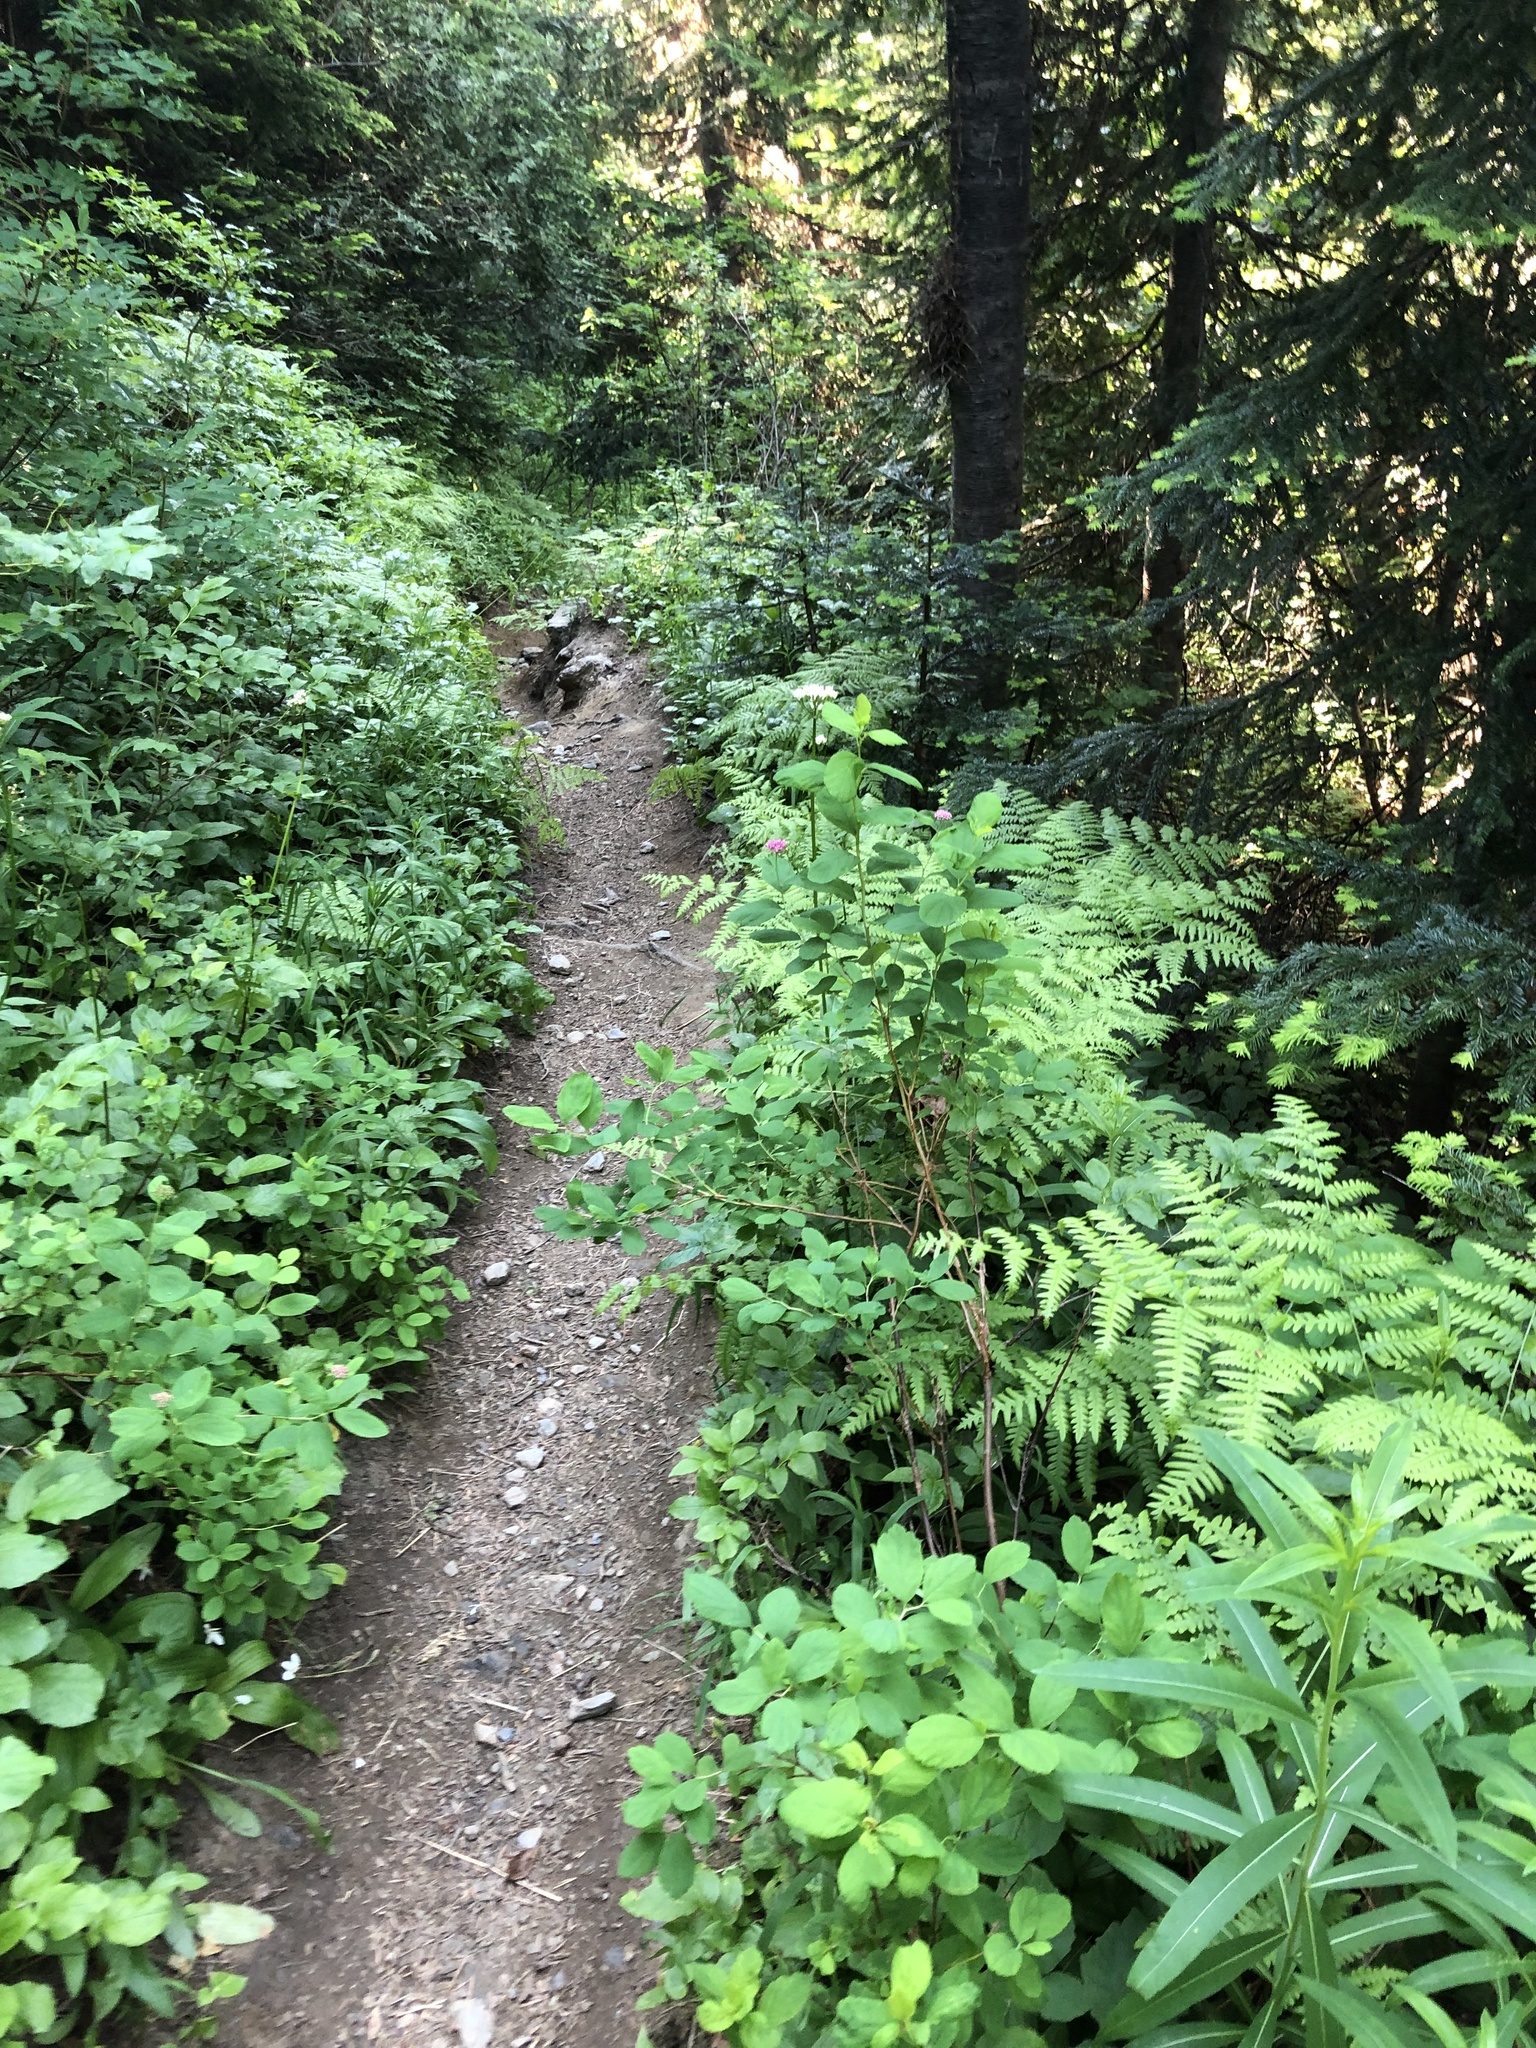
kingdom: Plantae
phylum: Tracheophyta
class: Magnoliopsida
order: Rosales
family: Rosaceae
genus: Spiraea
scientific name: Spiraea splendens
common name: Subalpine meadowsweet
